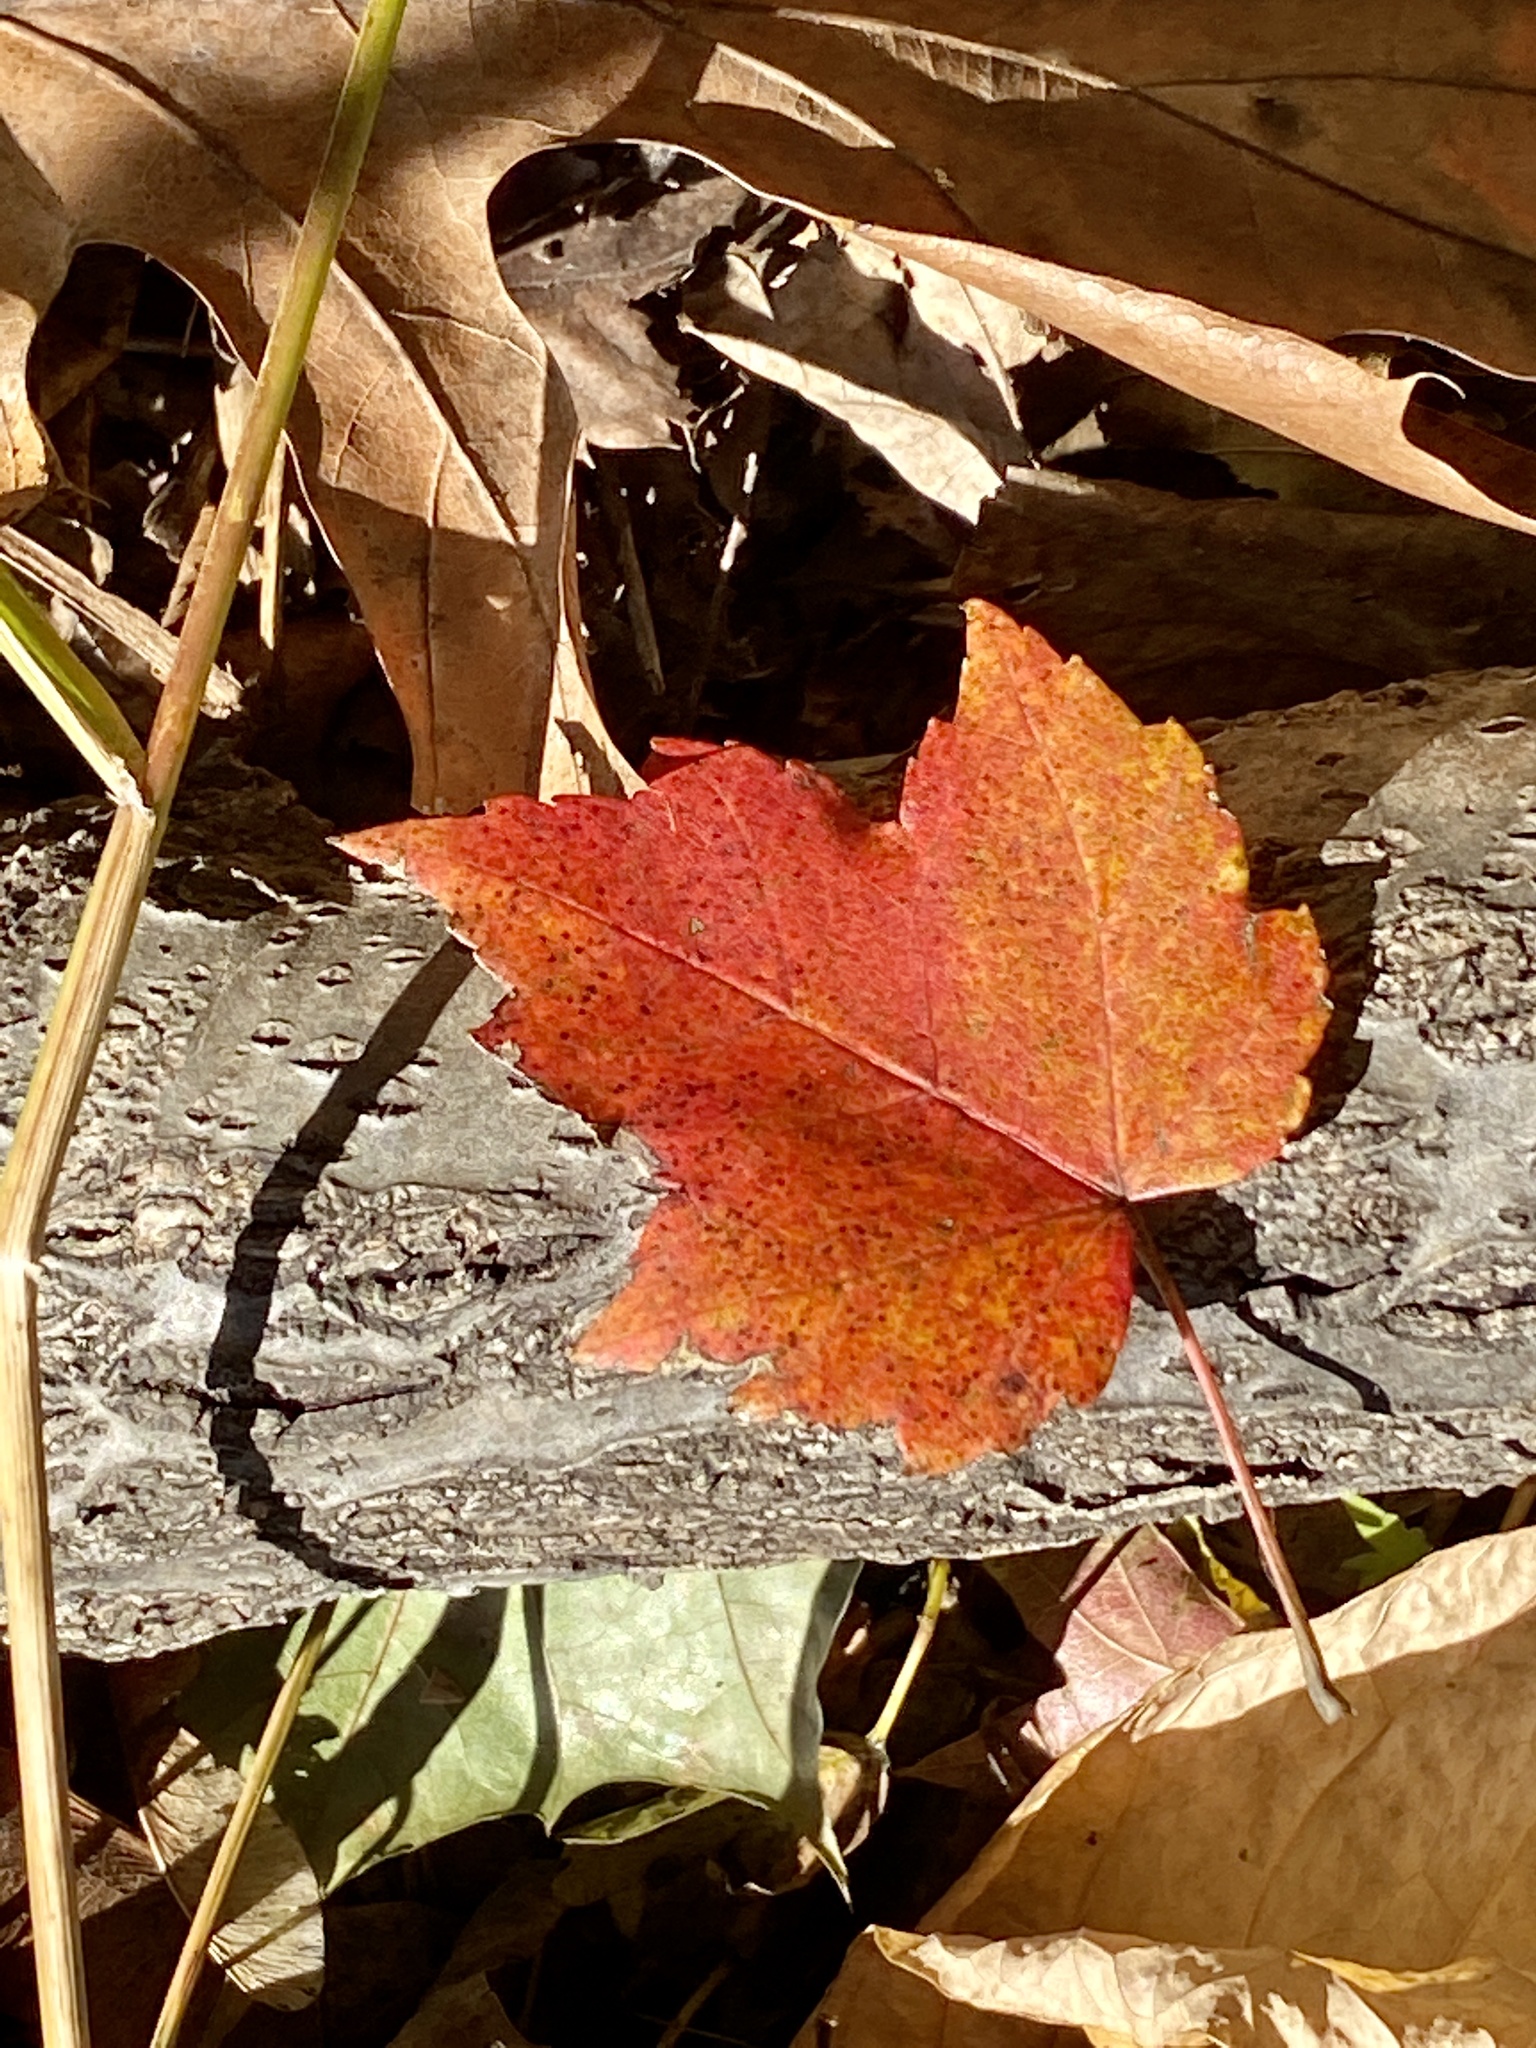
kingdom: Plantae
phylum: Tracheophyta
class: Magnoliopsida
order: Sapindales
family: Sapindaceae
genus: Acer
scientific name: Acer rubrum
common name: Red maple
